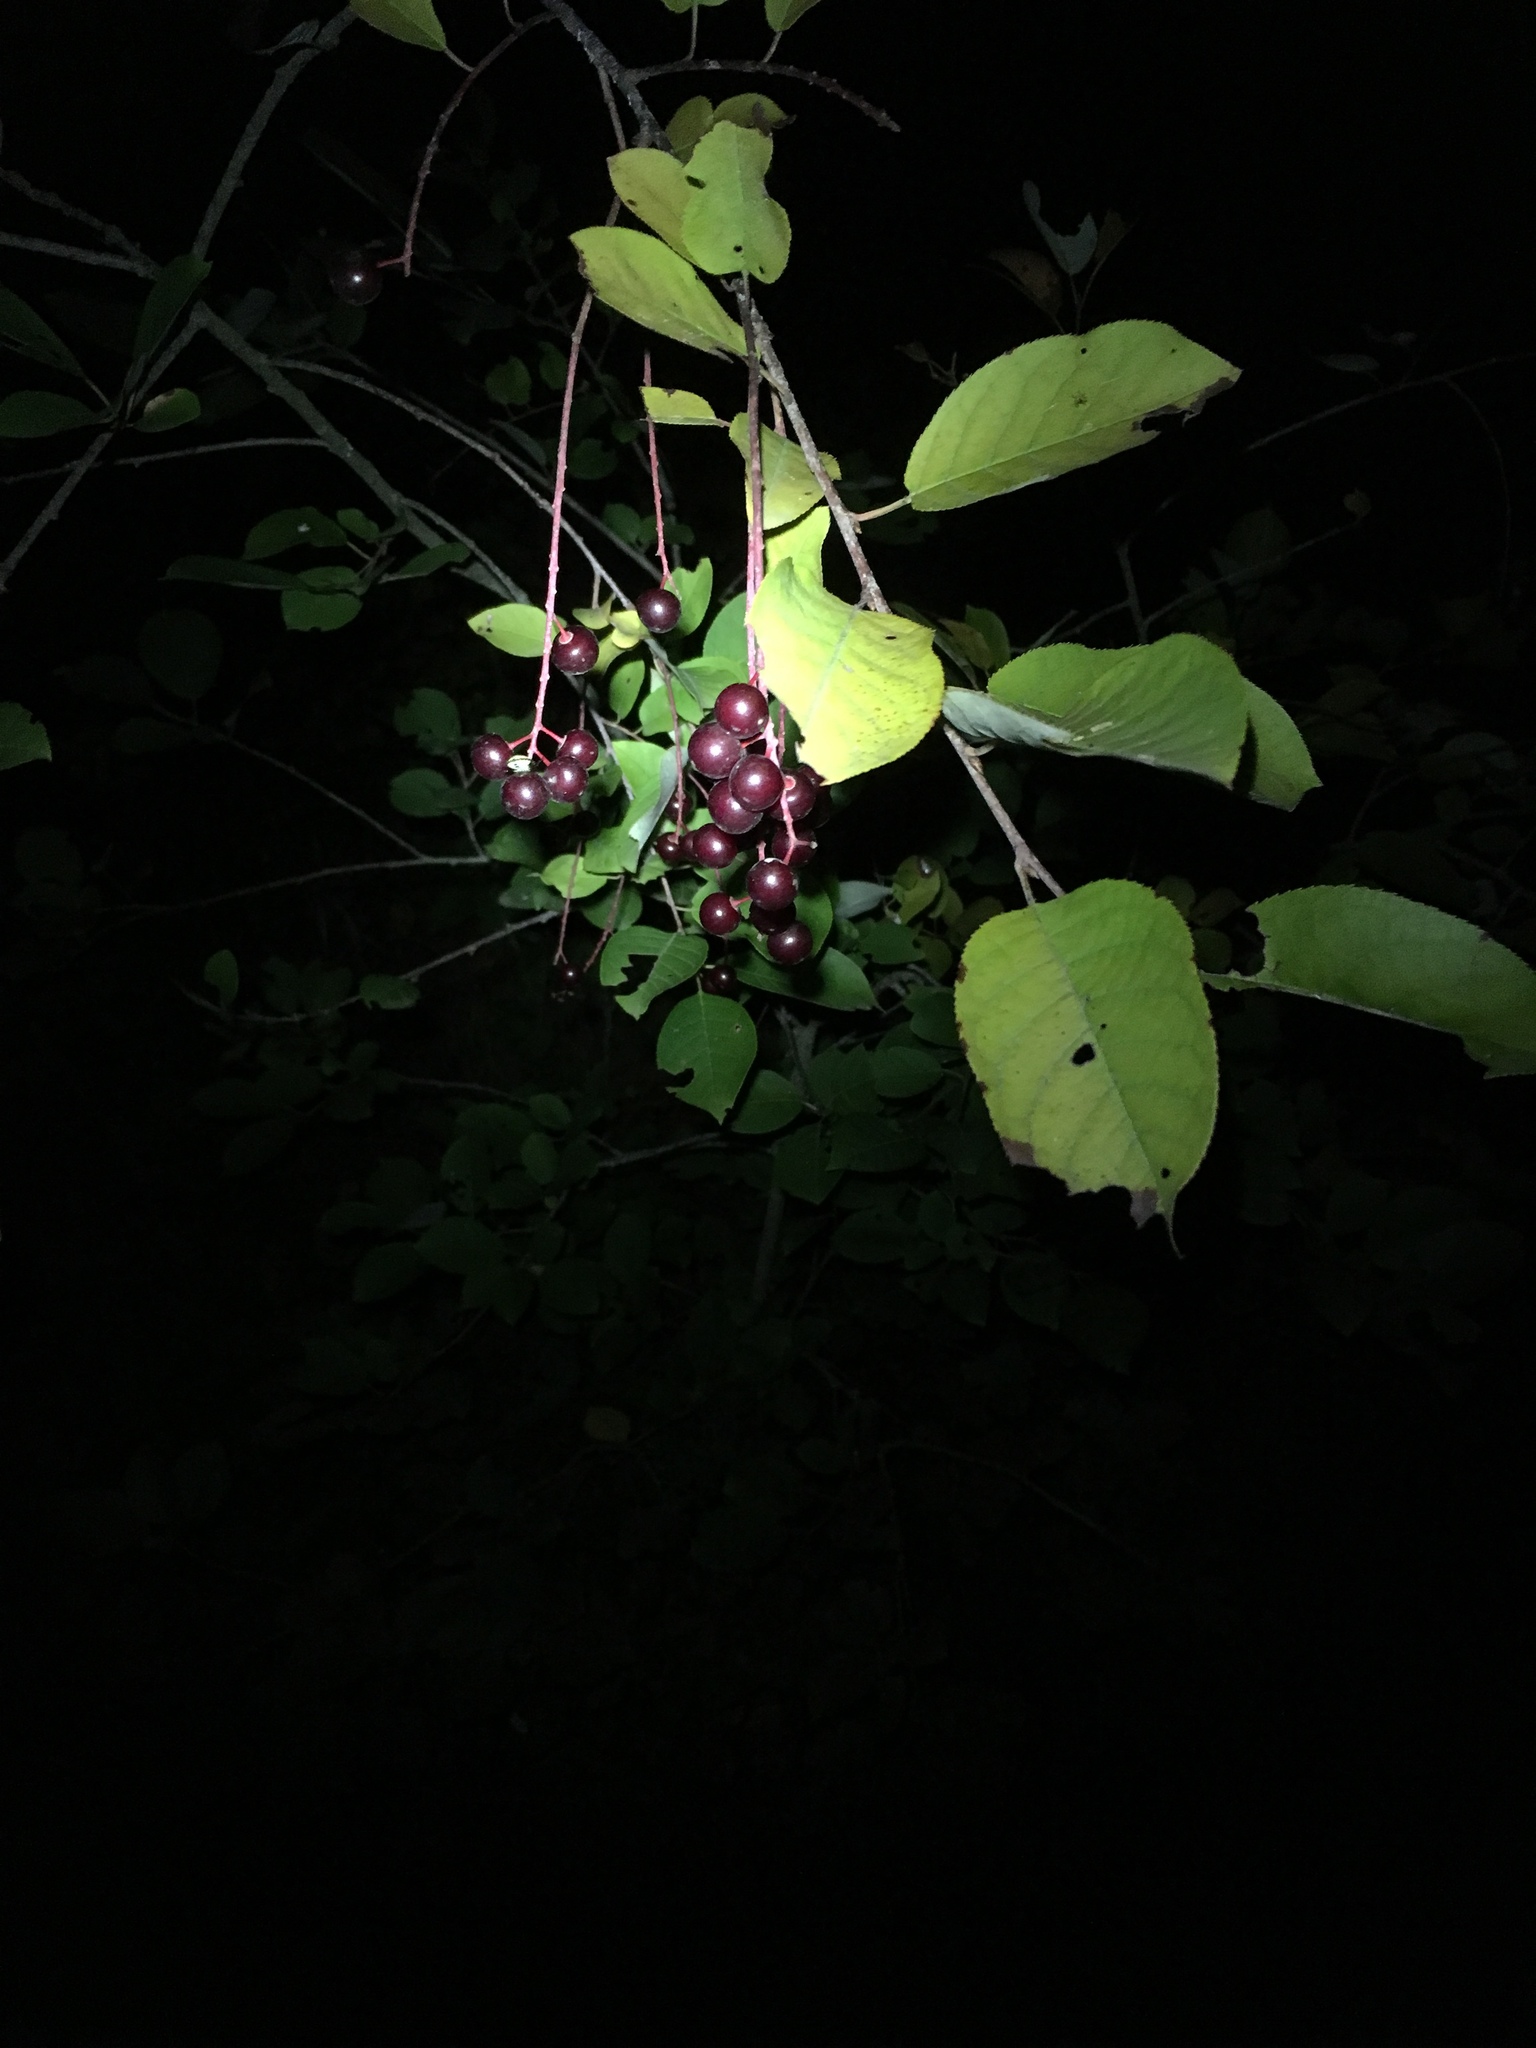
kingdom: Plantae
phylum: Tracheophyta
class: Magnoliopsida
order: Rosales
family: Rosaceae
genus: Prunus
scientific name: Prunus virginiana
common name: Chokecherry
